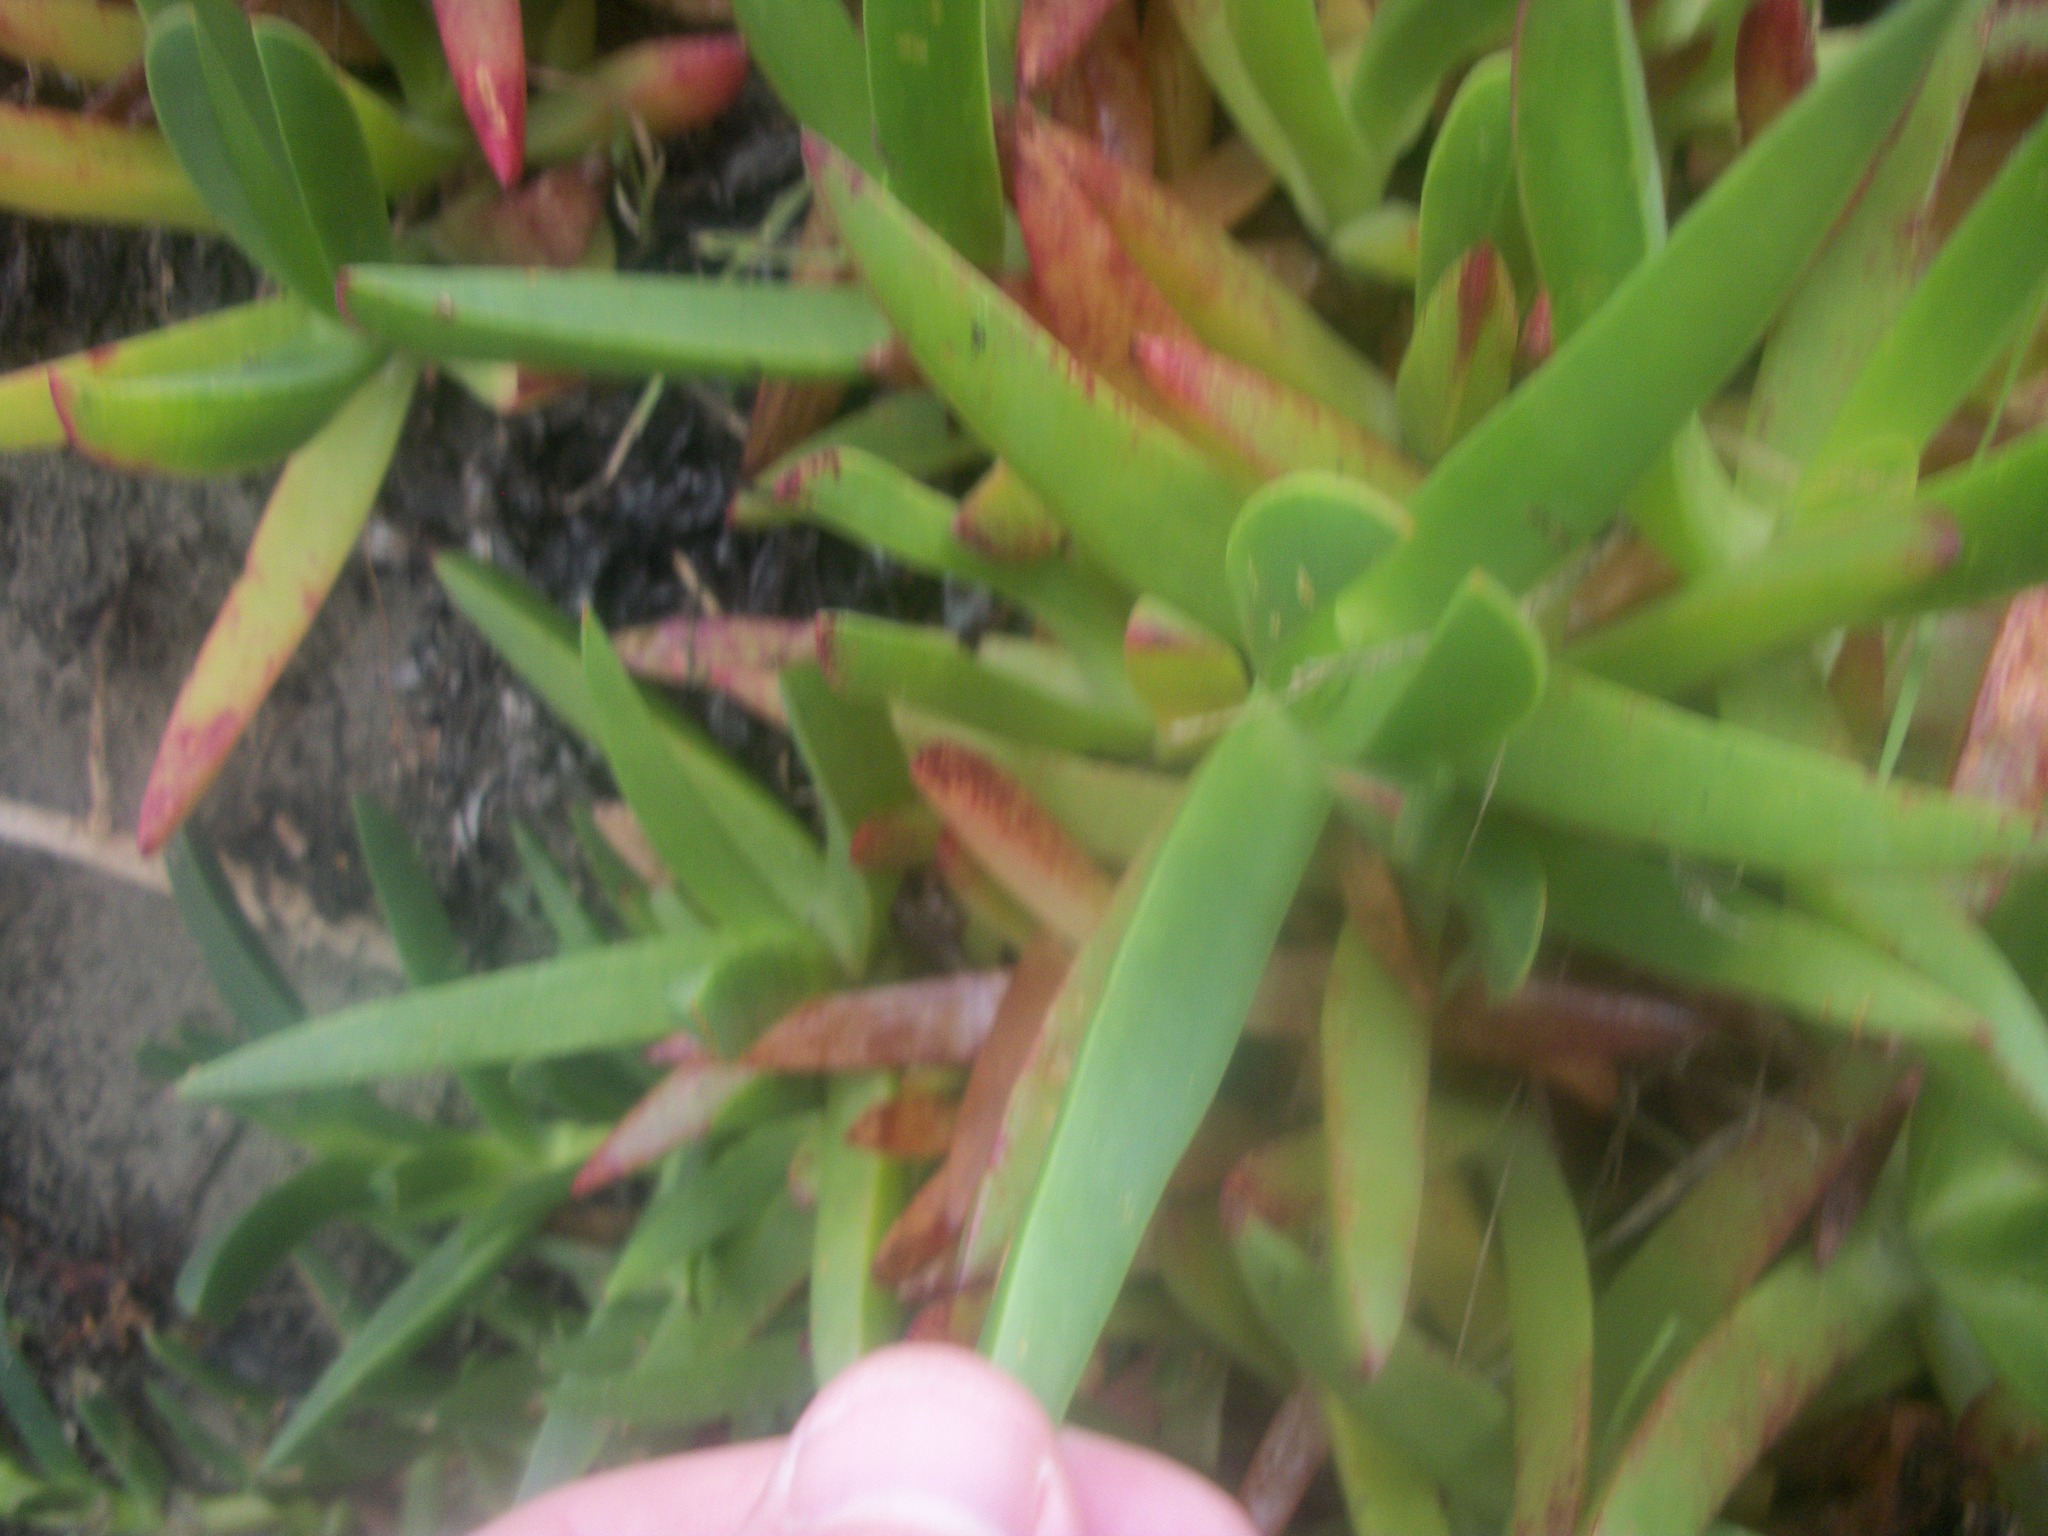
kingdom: Plantae
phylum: Tracheophyta
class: Magnoliopsida
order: Caryophyllales
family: Aizoaceae
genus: Carpobrotus
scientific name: Carpobrotus edulis
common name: Hottentot-fig
